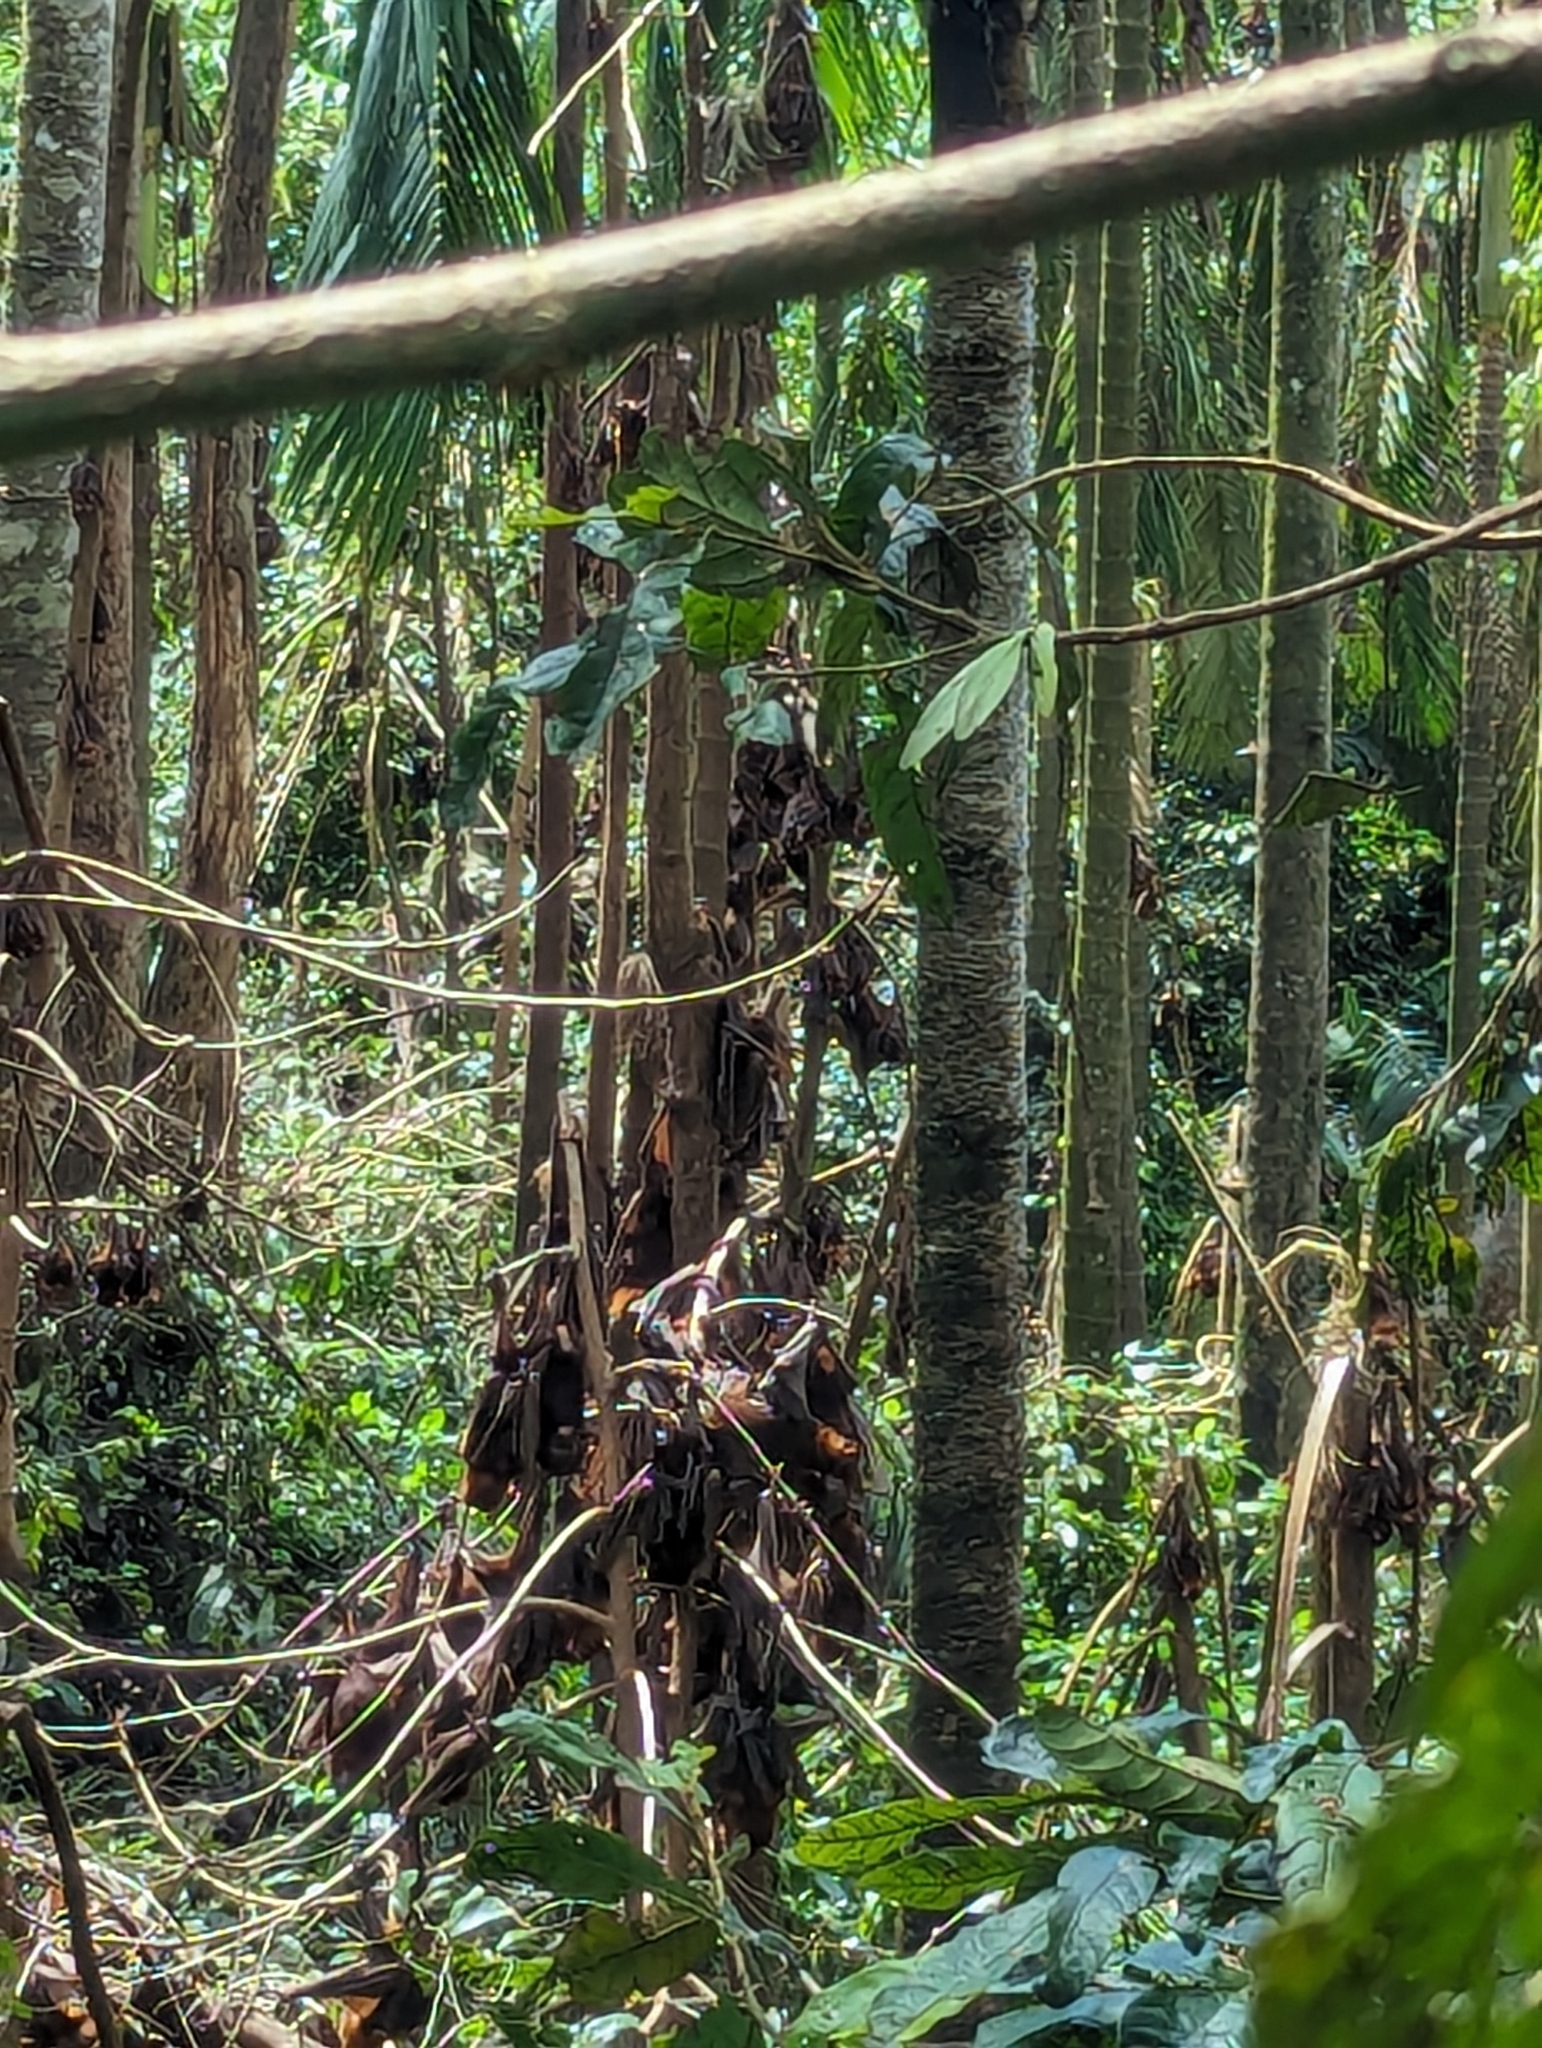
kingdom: Animalia
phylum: Chordata
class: Mammalia
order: Chiroptera
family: Pteropodidae
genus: Pteropus
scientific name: Pteropus scapulatus
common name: Little red flying fox
